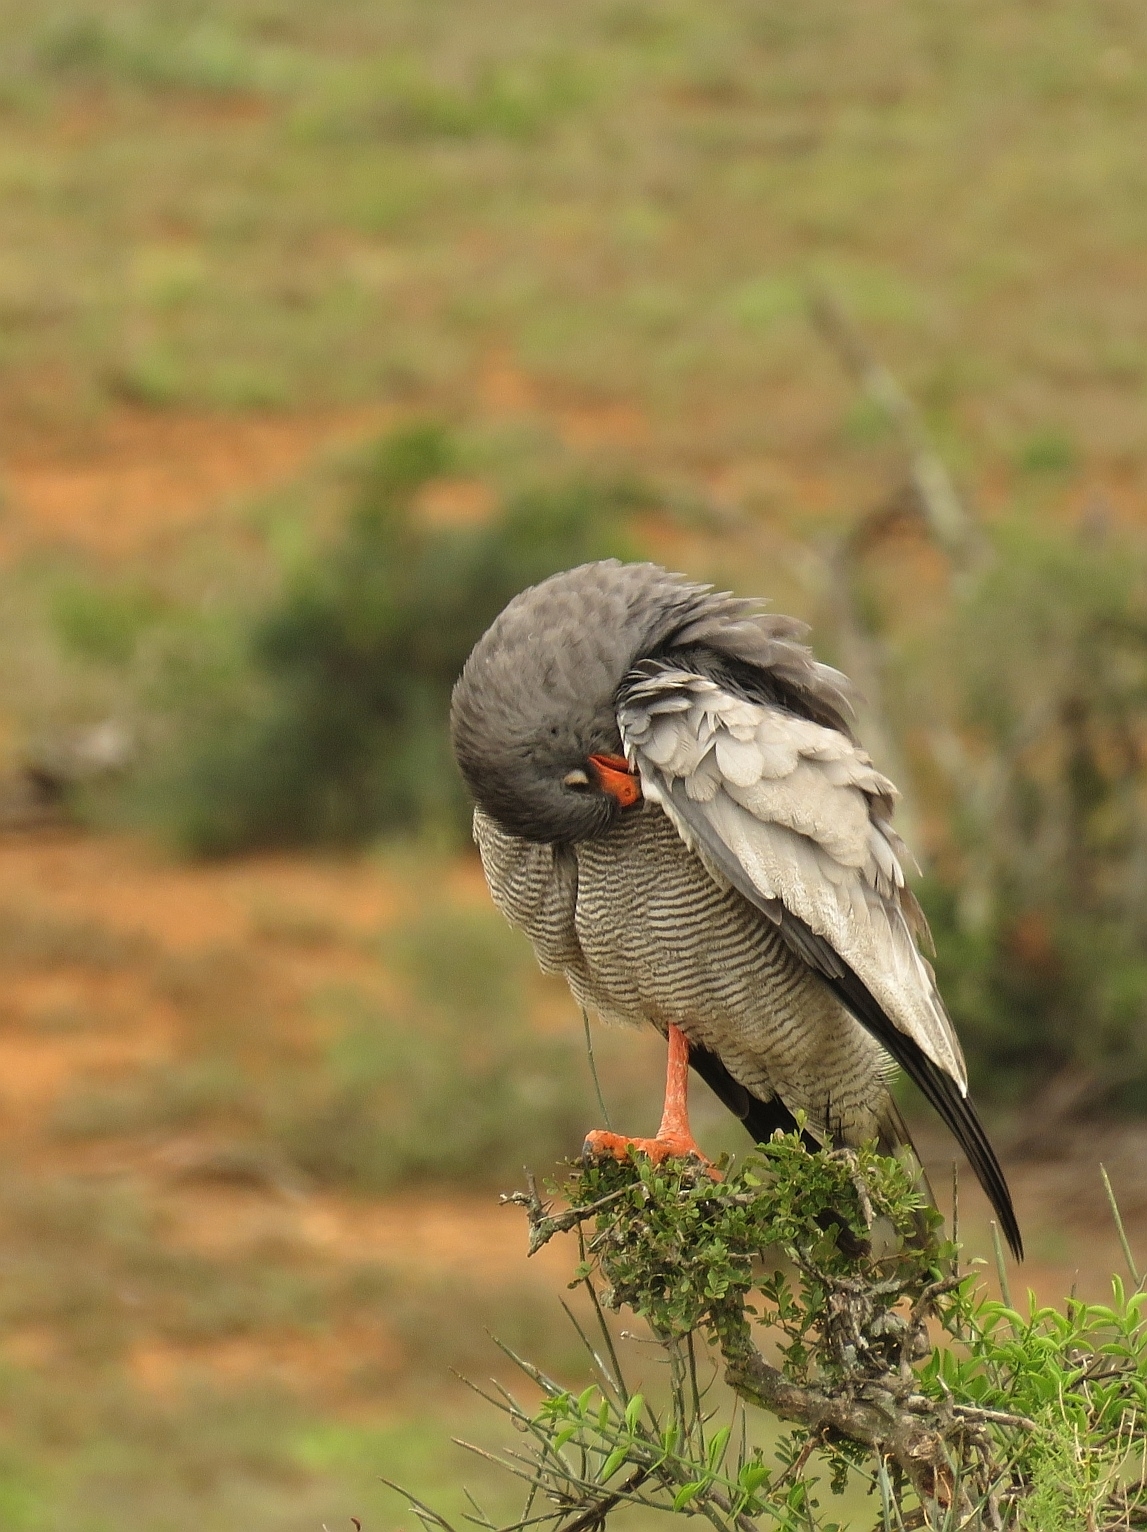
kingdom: Animalia
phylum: Chordata
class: Aves
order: Accipitriformes
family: Accipitridae
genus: Melierax
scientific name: Melierax canorus
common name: Pale chanting-goshawk
